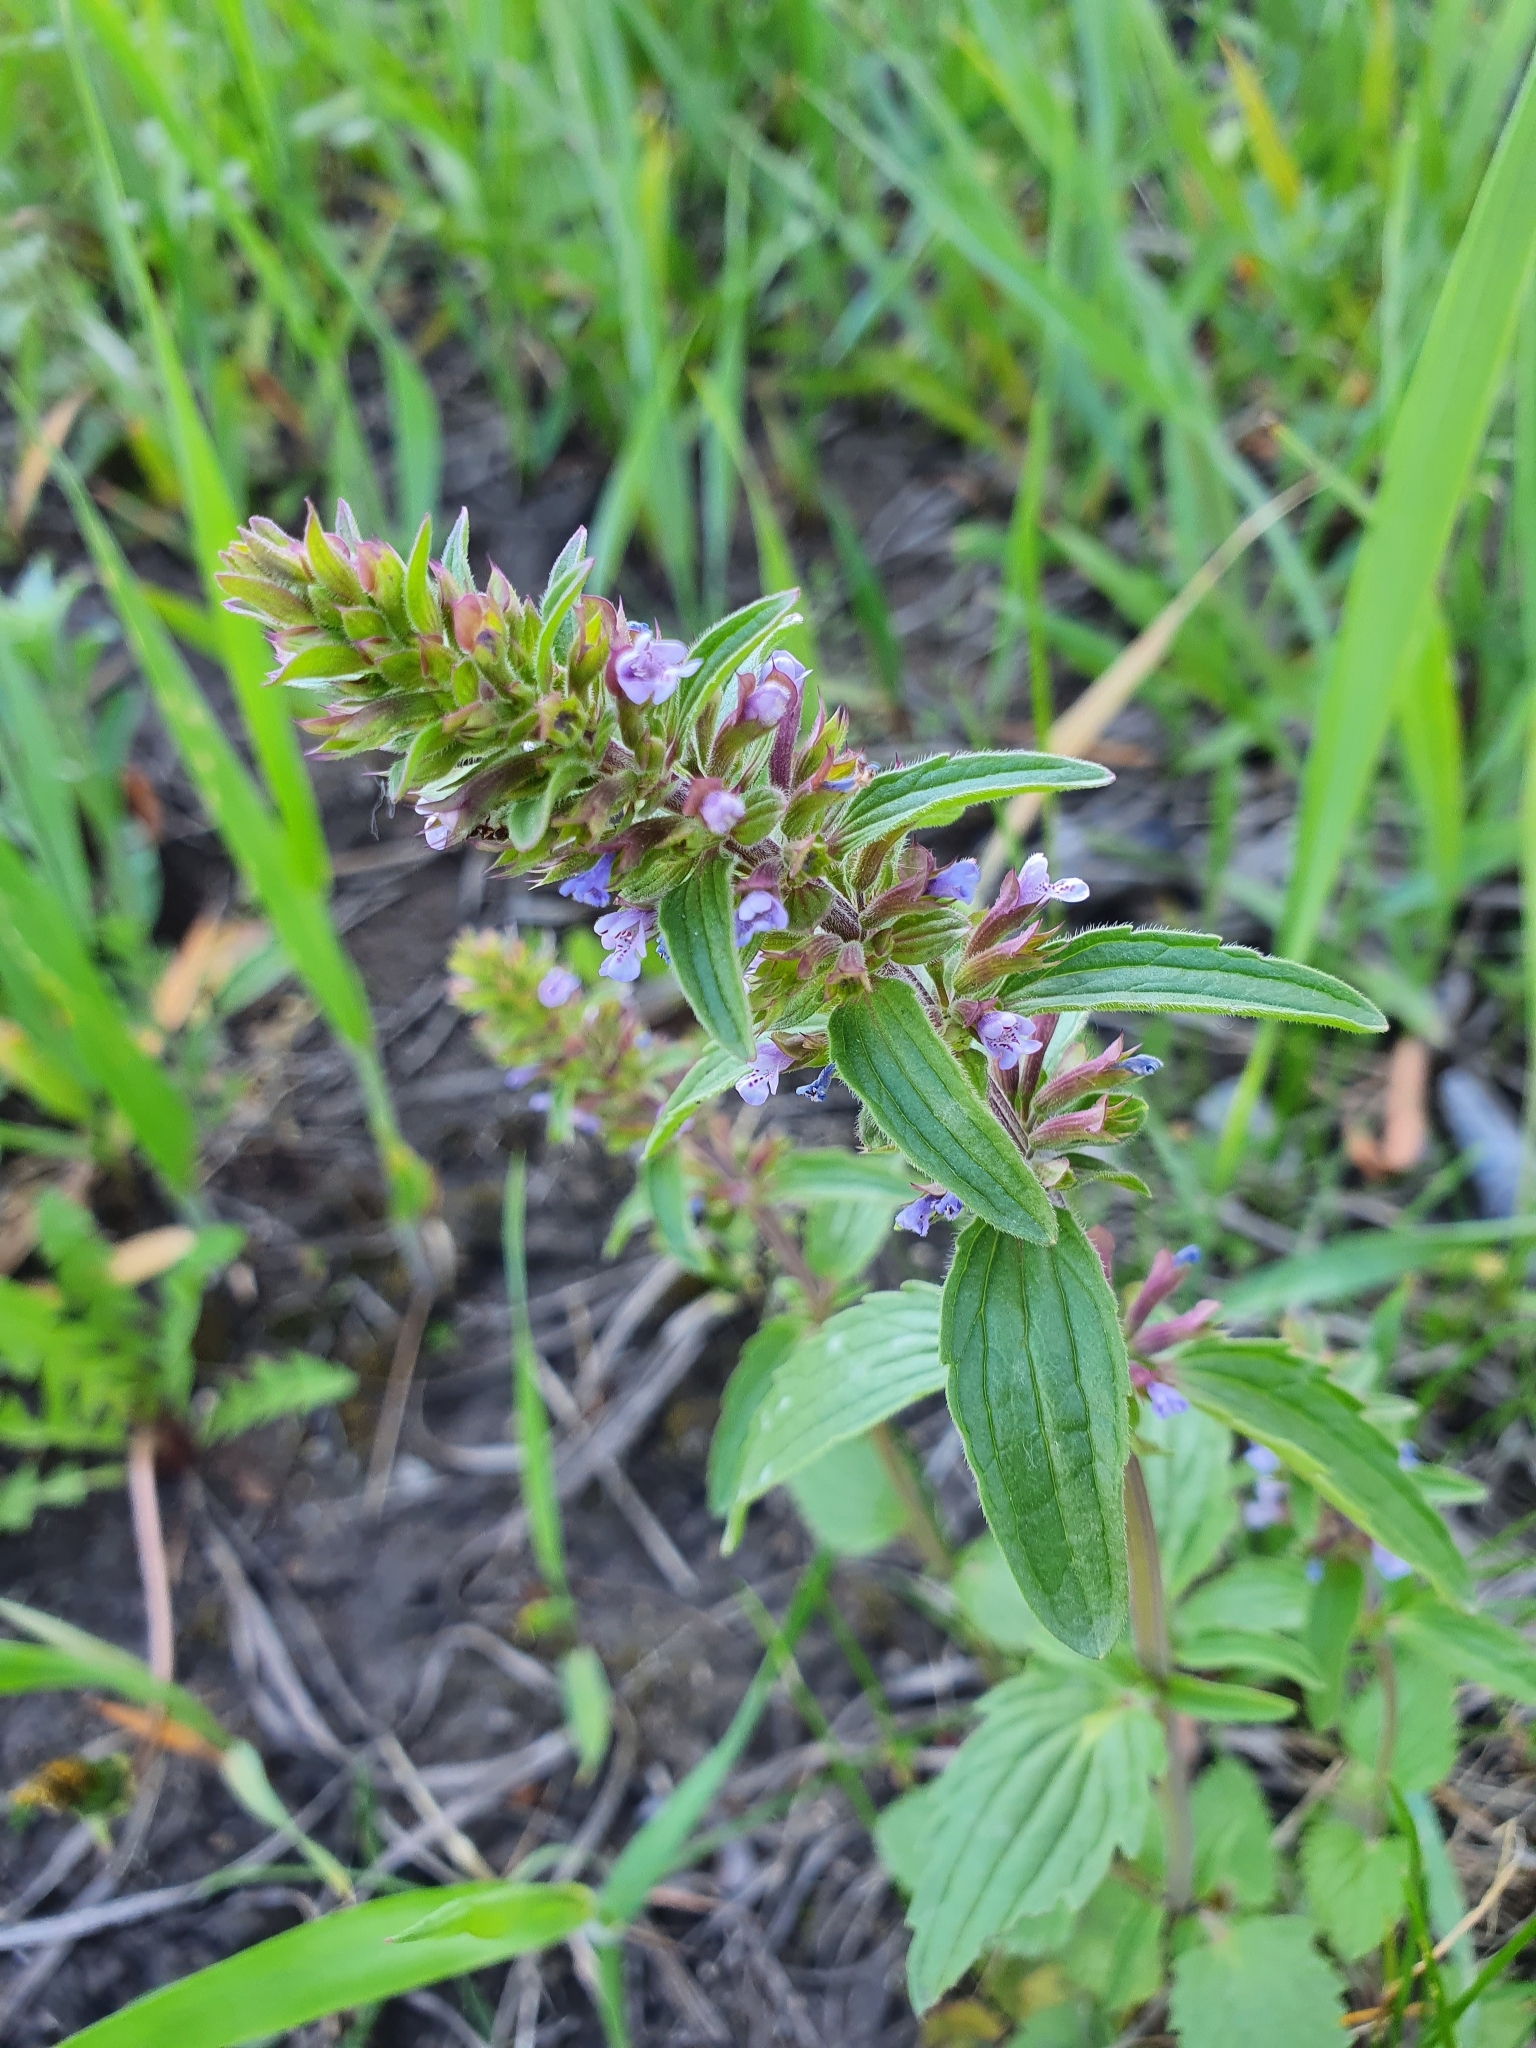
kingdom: Plantae
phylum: Tracheophyta
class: Magnoliopsida
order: Lamiales
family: Lamiaceae
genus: Dracocephalum
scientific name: Dracocephalum thymiflorum
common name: Thymeleaf dragonhead
